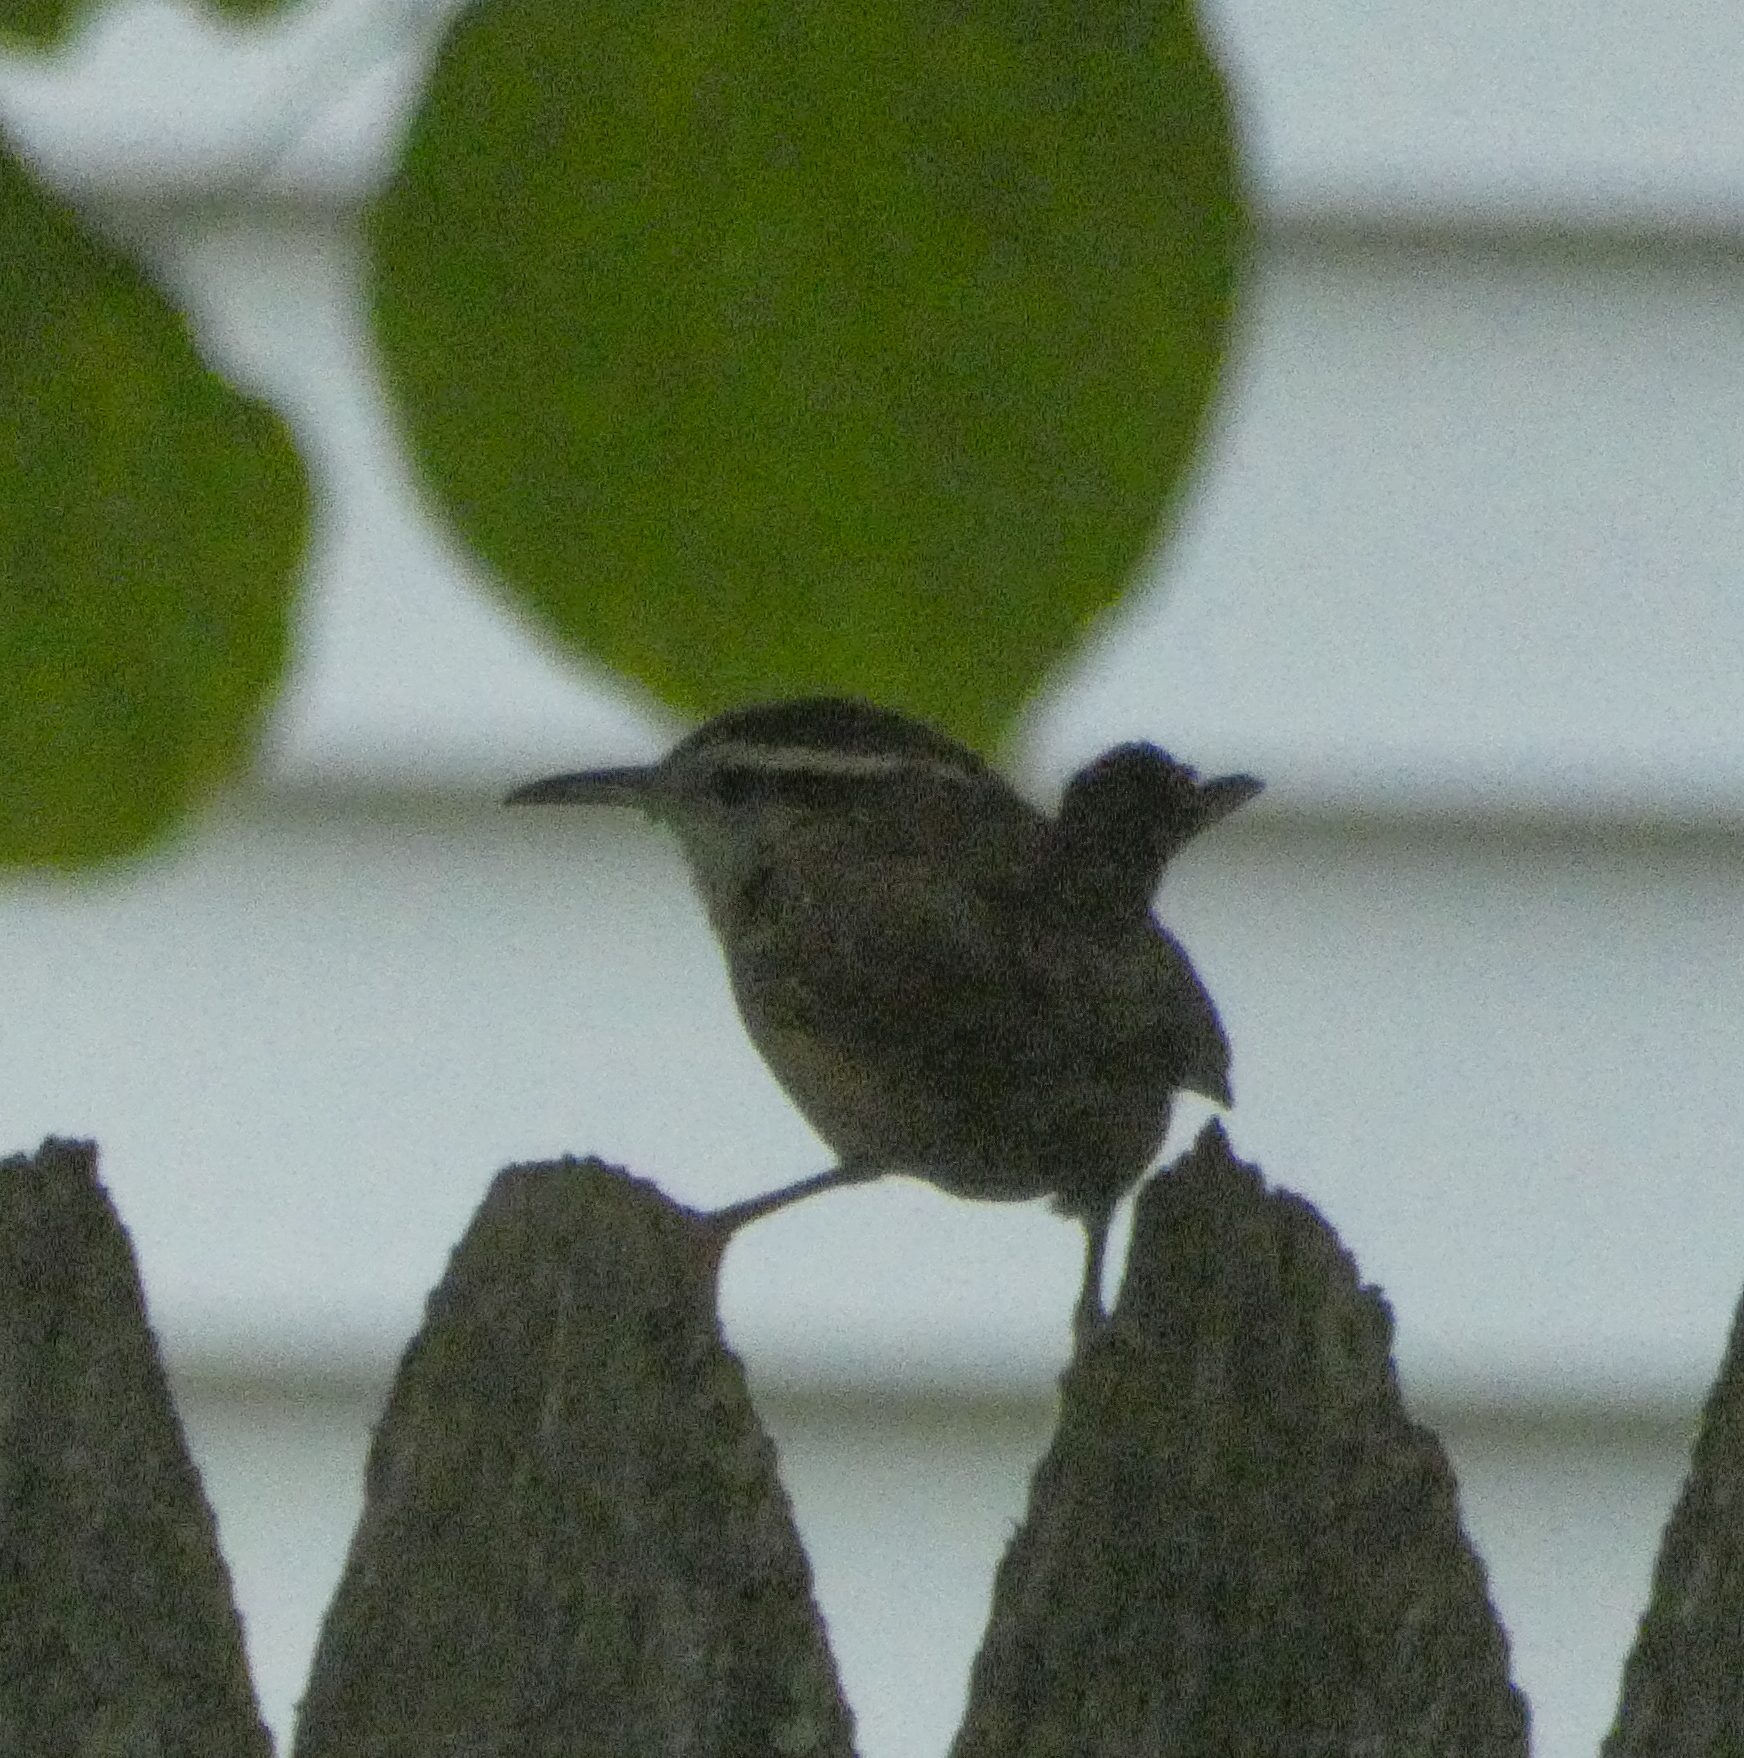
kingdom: Animalia
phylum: Chordata
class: Aves
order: Passeriformes
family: Troglodytidae
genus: Thryothorus
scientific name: Thryothorus ludovicianus
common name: Carolina wren
